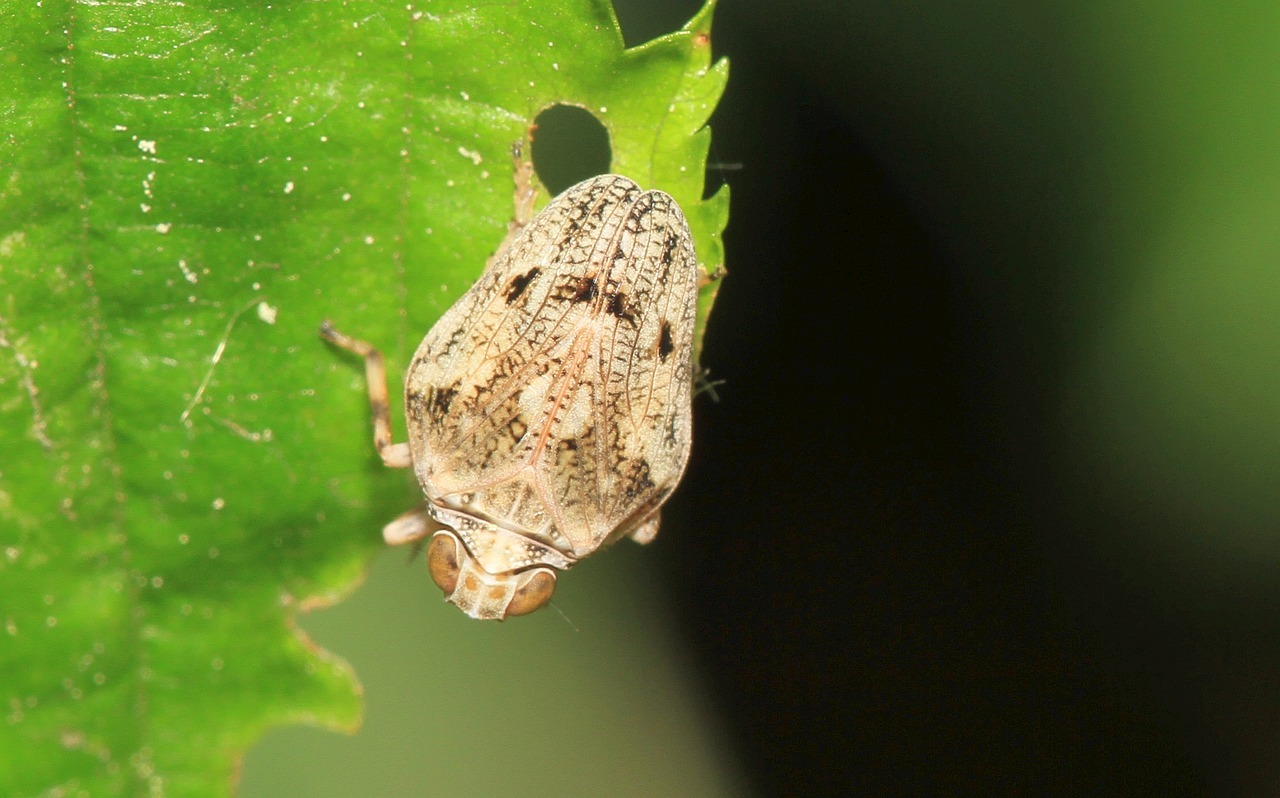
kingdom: Animalia
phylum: Arthropoda
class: Insecta
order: Hemiptera
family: Issidae
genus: Issus
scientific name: Issus coleoptratus
